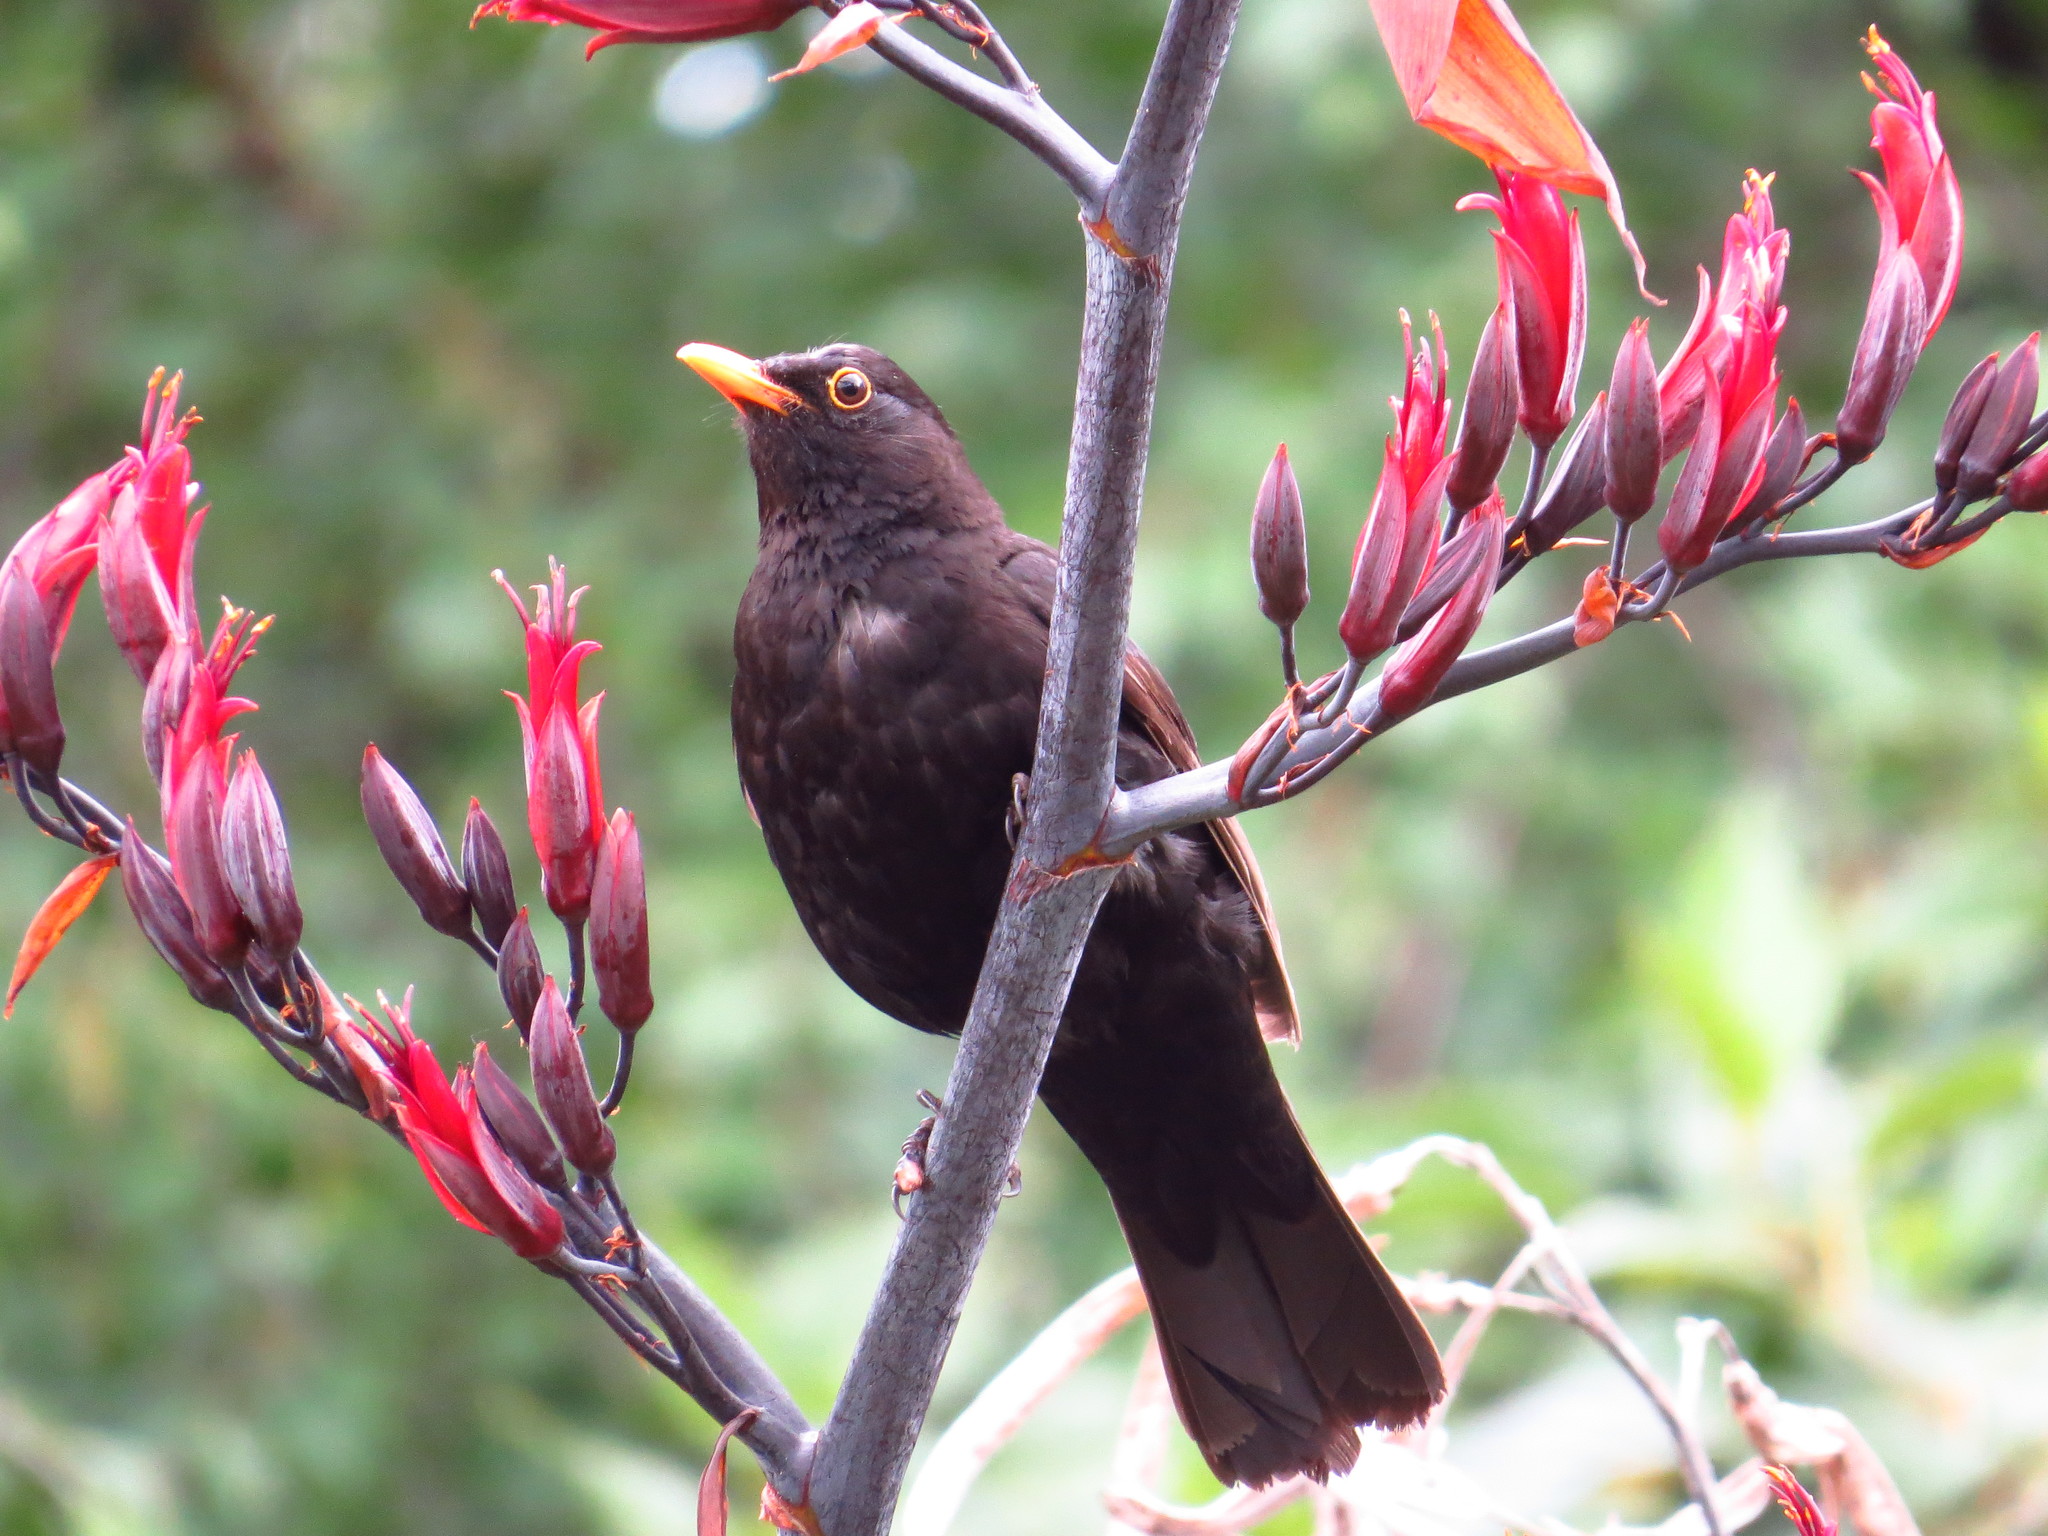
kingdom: Animalia
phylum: Chordata
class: Aves
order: Passeriformes
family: Turdidae
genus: Turdus
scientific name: Turdus merula
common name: Common blackbird
